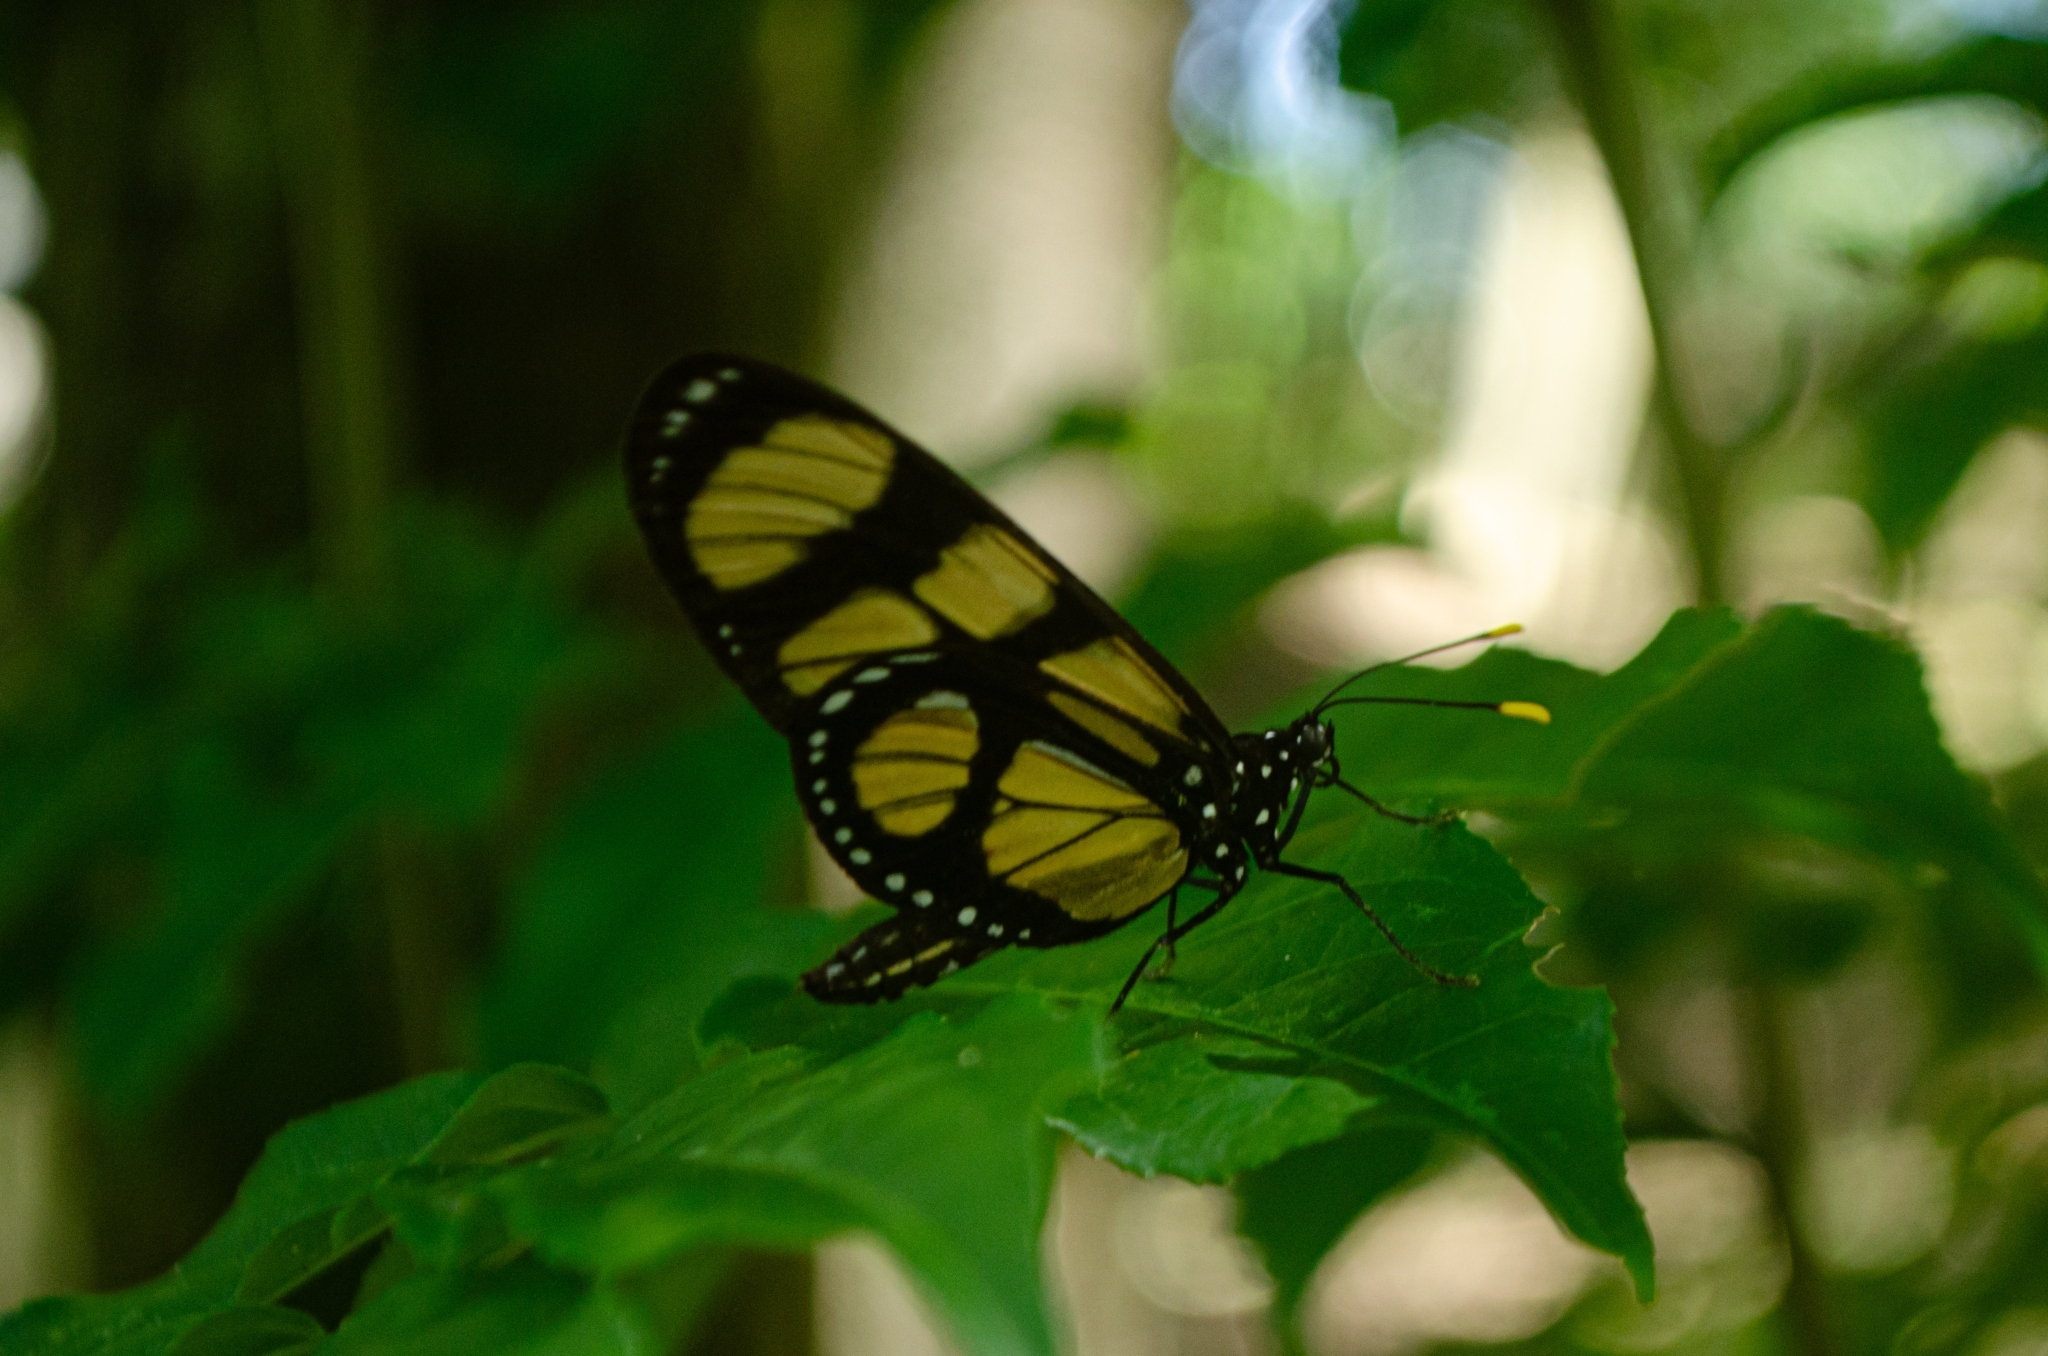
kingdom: Animalia
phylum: Arthropoda
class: Insecta
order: Lepidoptera
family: Nymphalidae
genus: Thyridia
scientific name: Thyridia psidii
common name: Melantho tigerwing
